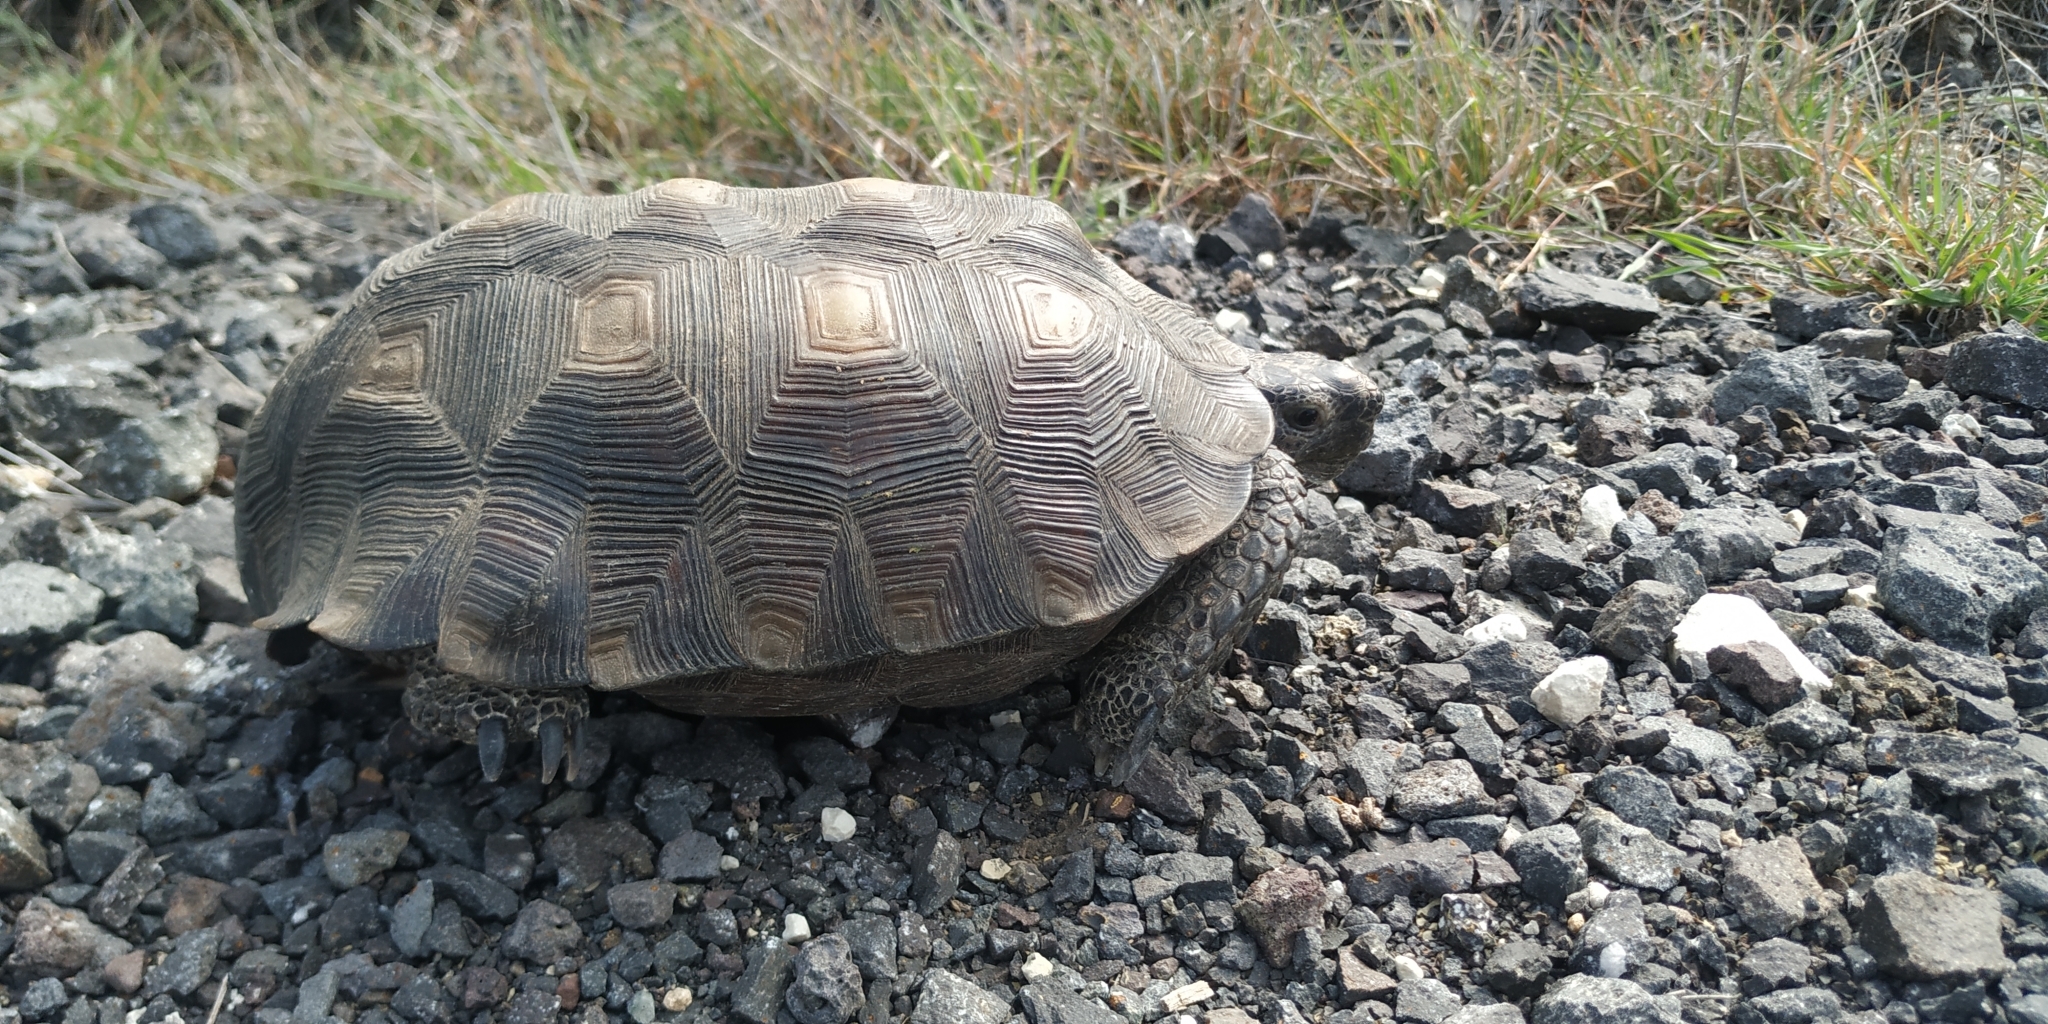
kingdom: Animalia
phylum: Chordata
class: Testudines
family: Testudinidae
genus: Gopherus
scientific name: Gopherus berlandieri
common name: Texas (gopher )tortoise
